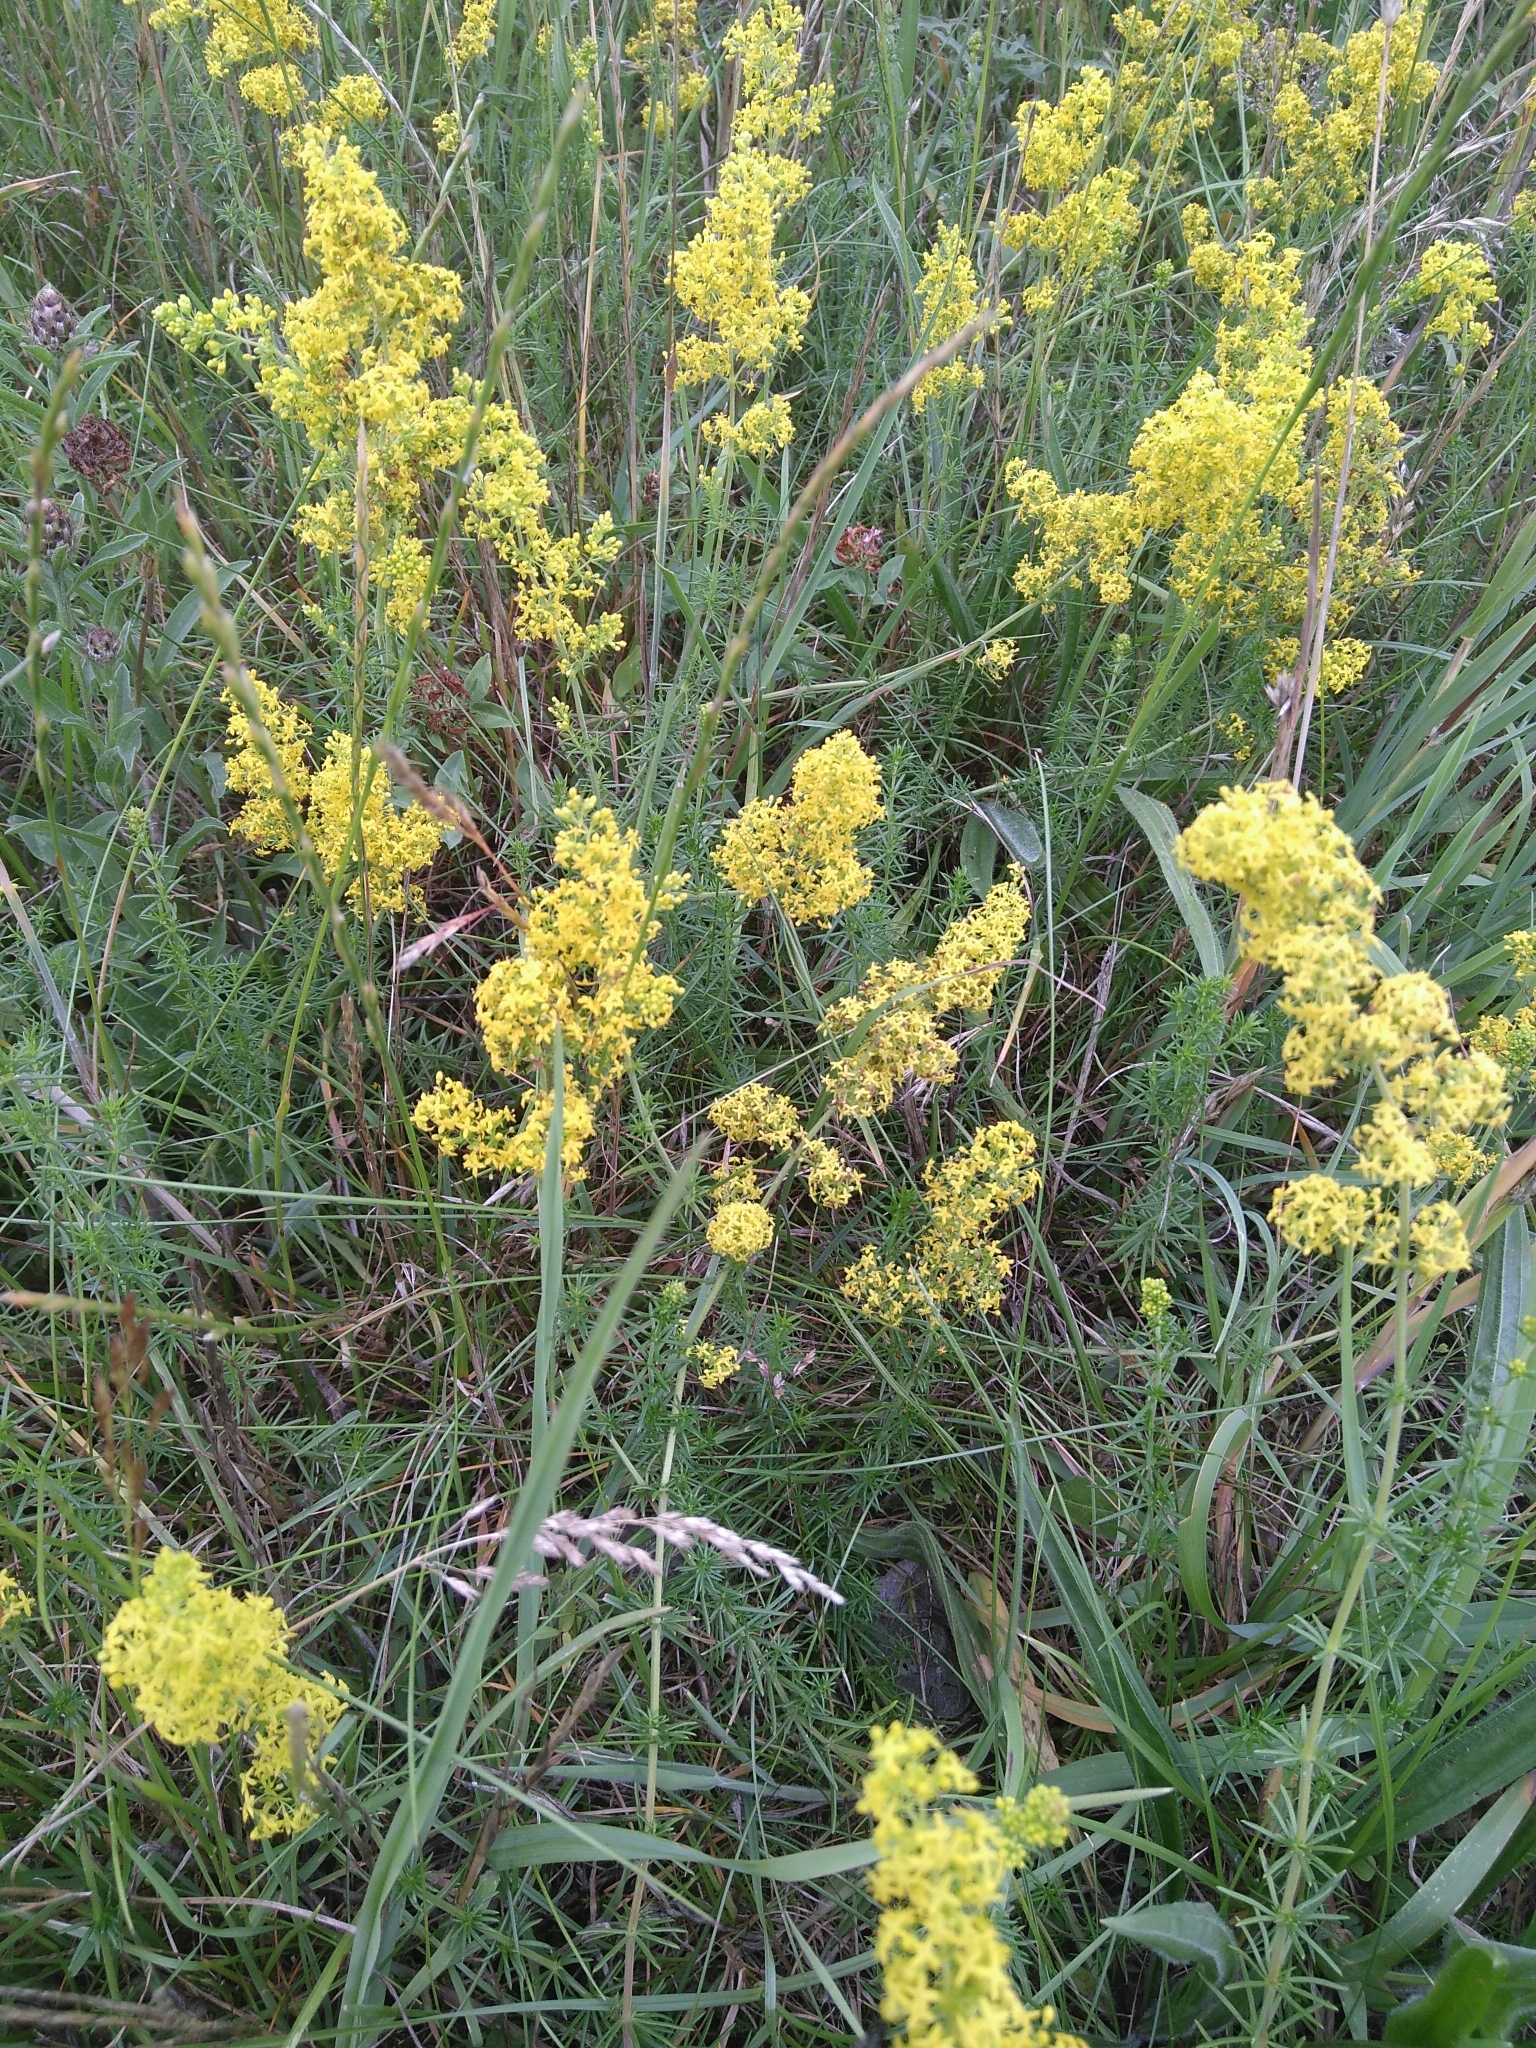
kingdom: Plantae
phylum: Tracheophyta
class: Magnoliopsida
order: Gentianales
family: Rubiaceae
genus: Galium
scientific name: Galium verum
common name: Lady's bedstraw
